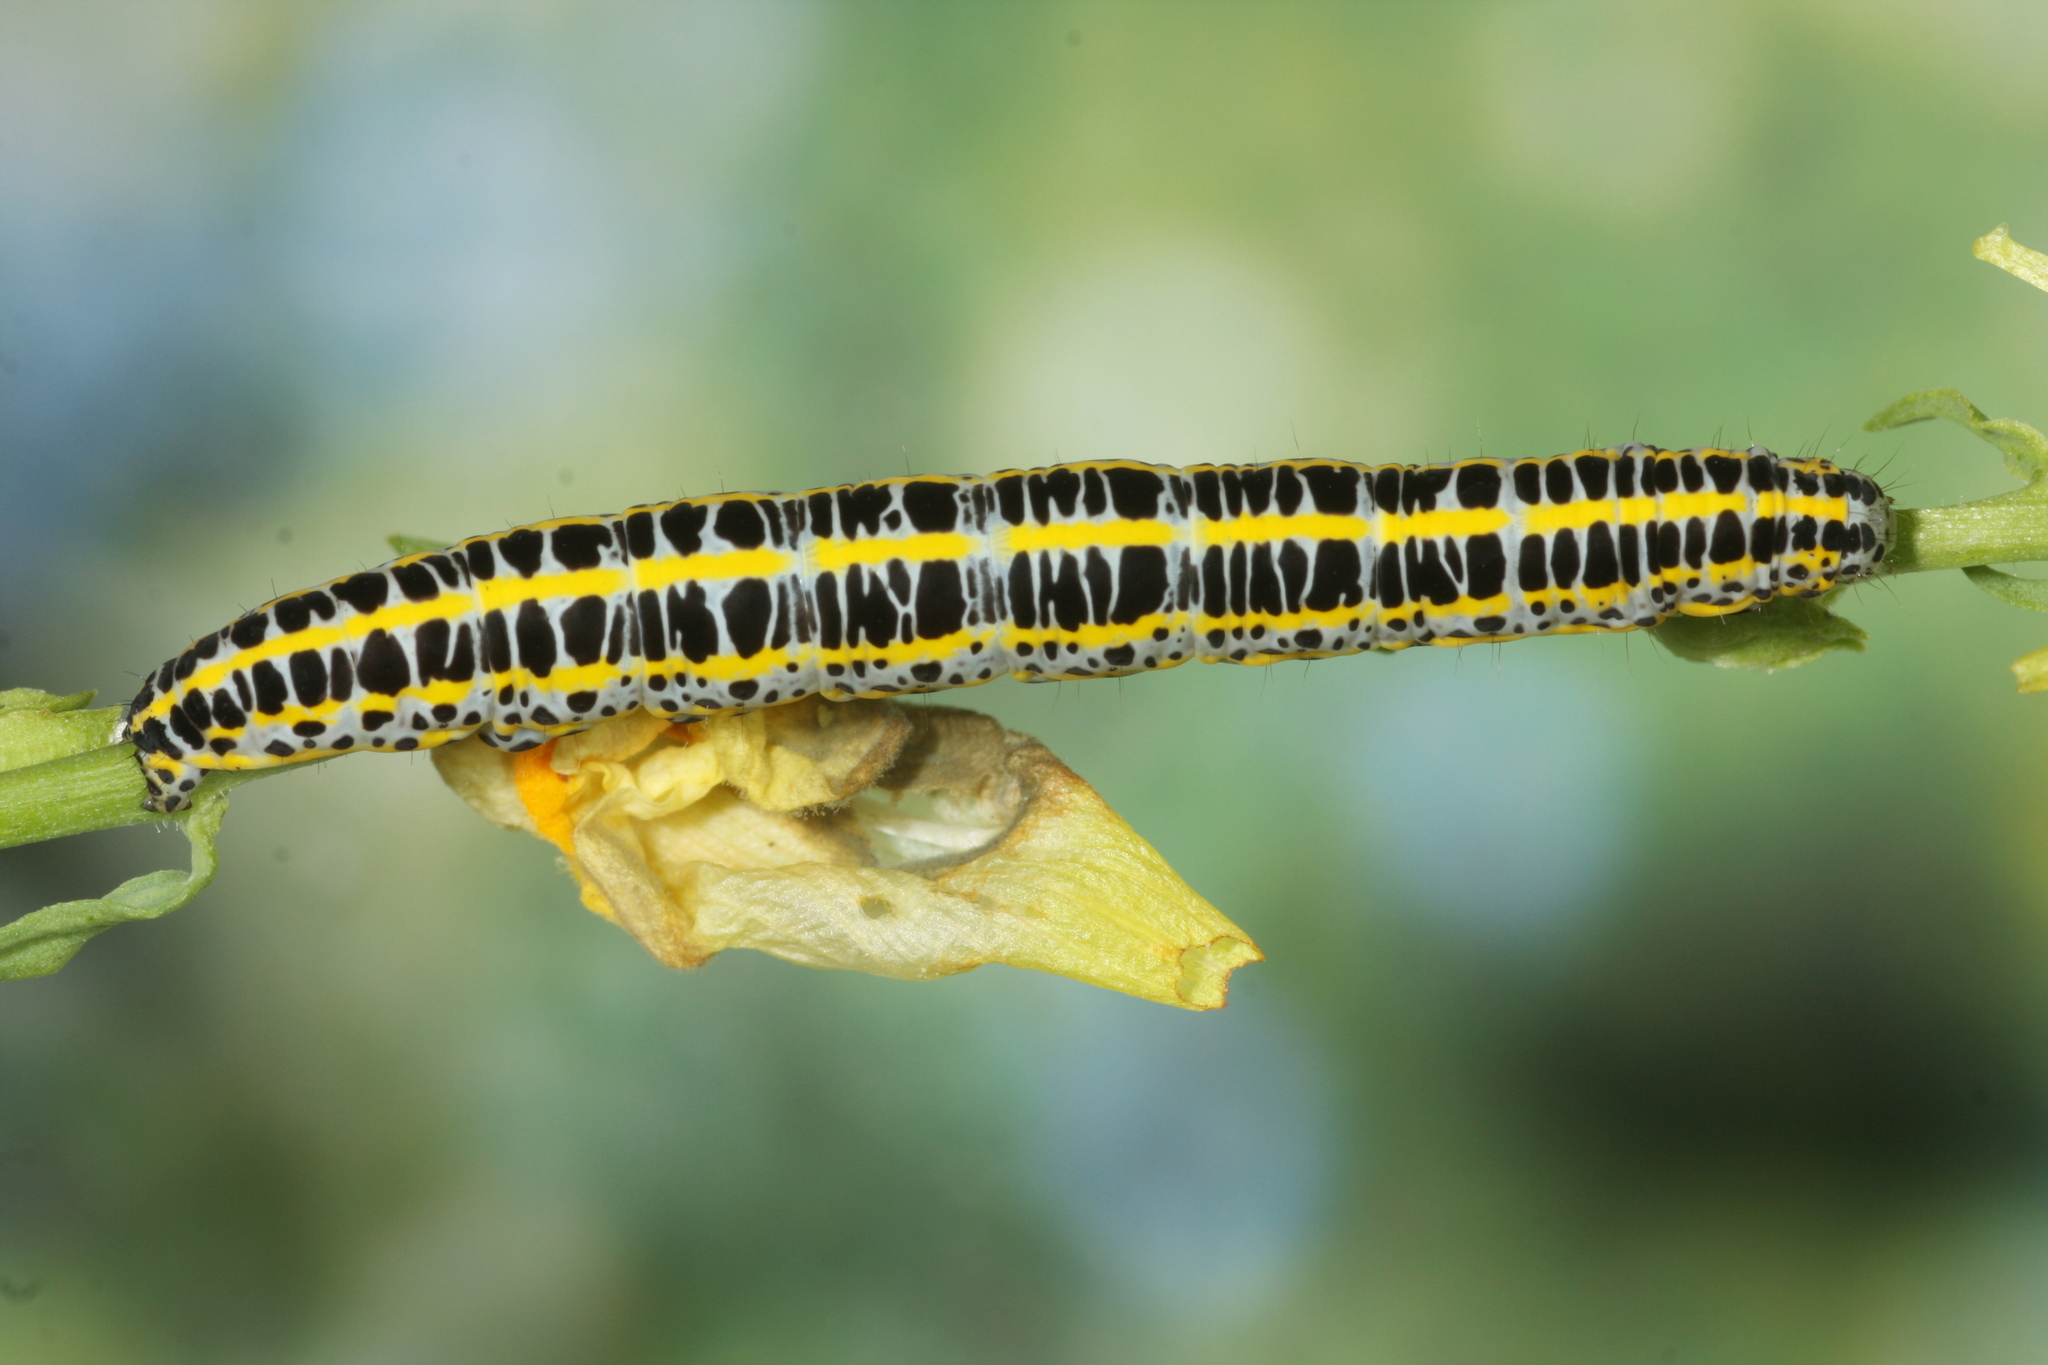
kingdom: Animalia
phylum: Arthropoda
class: Insecta
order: Lepidoptera
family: Noctuidae
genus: Calophasia
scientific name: Calophasia lunula
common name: Toadflax brocade
